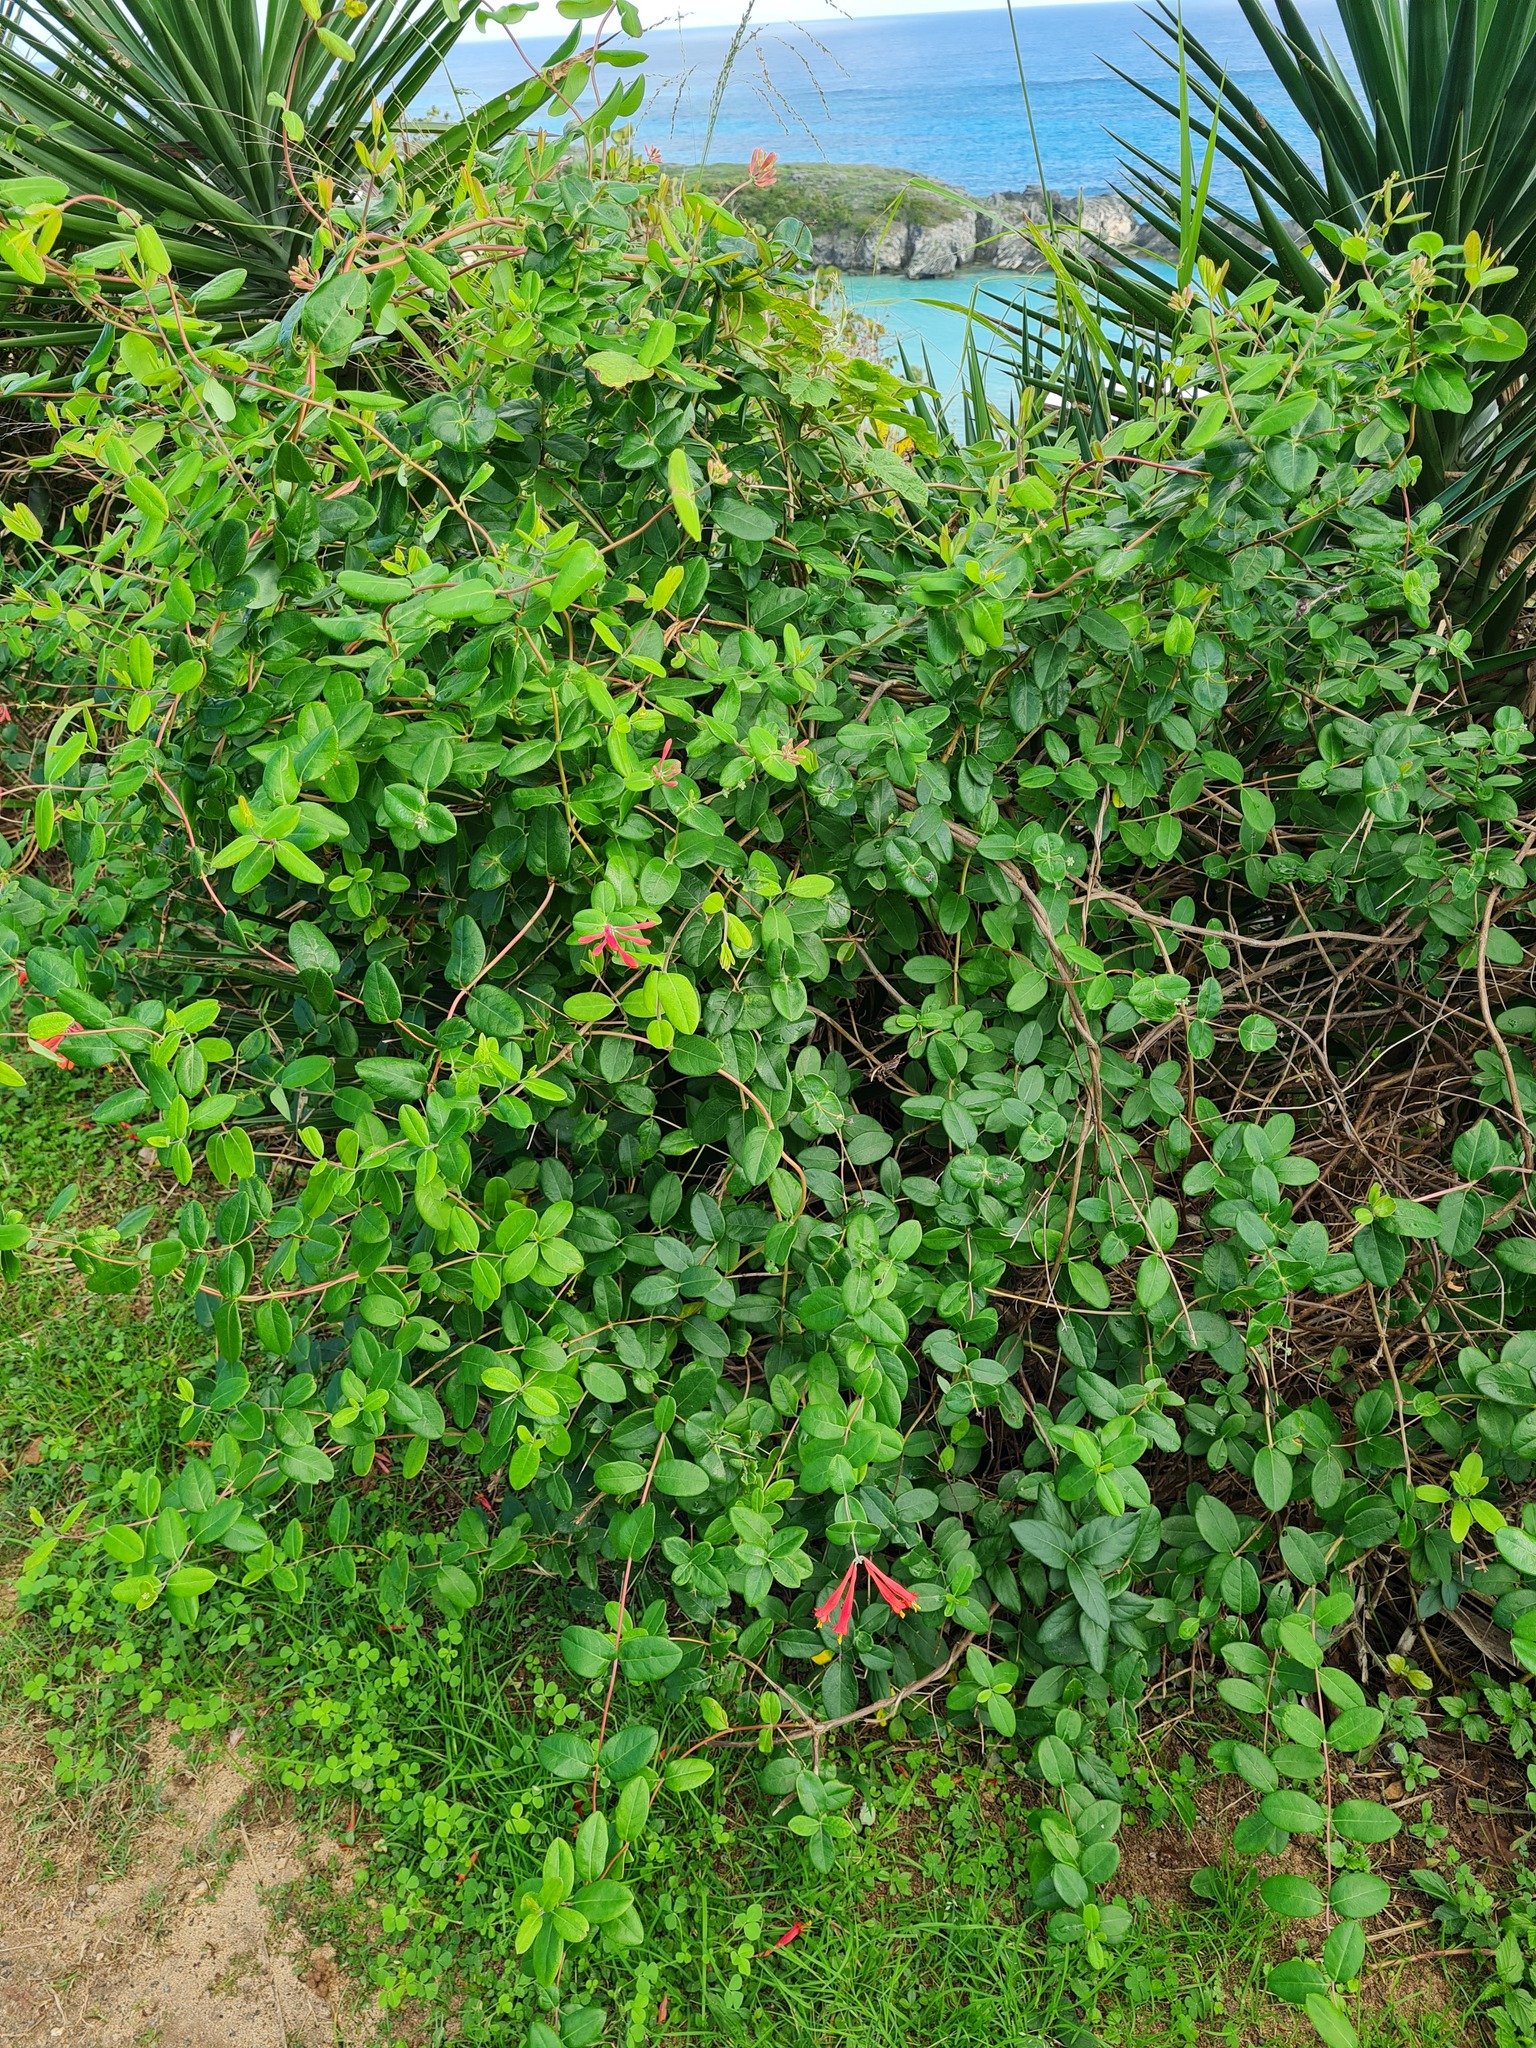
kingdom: Plantae
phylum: Tracheophyta
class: Magnoliopsida
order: Dipsacales
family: Caprifoliaceae
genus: Lonicera
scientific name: Lonicera sempervirens
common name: Coral honeysuckle
